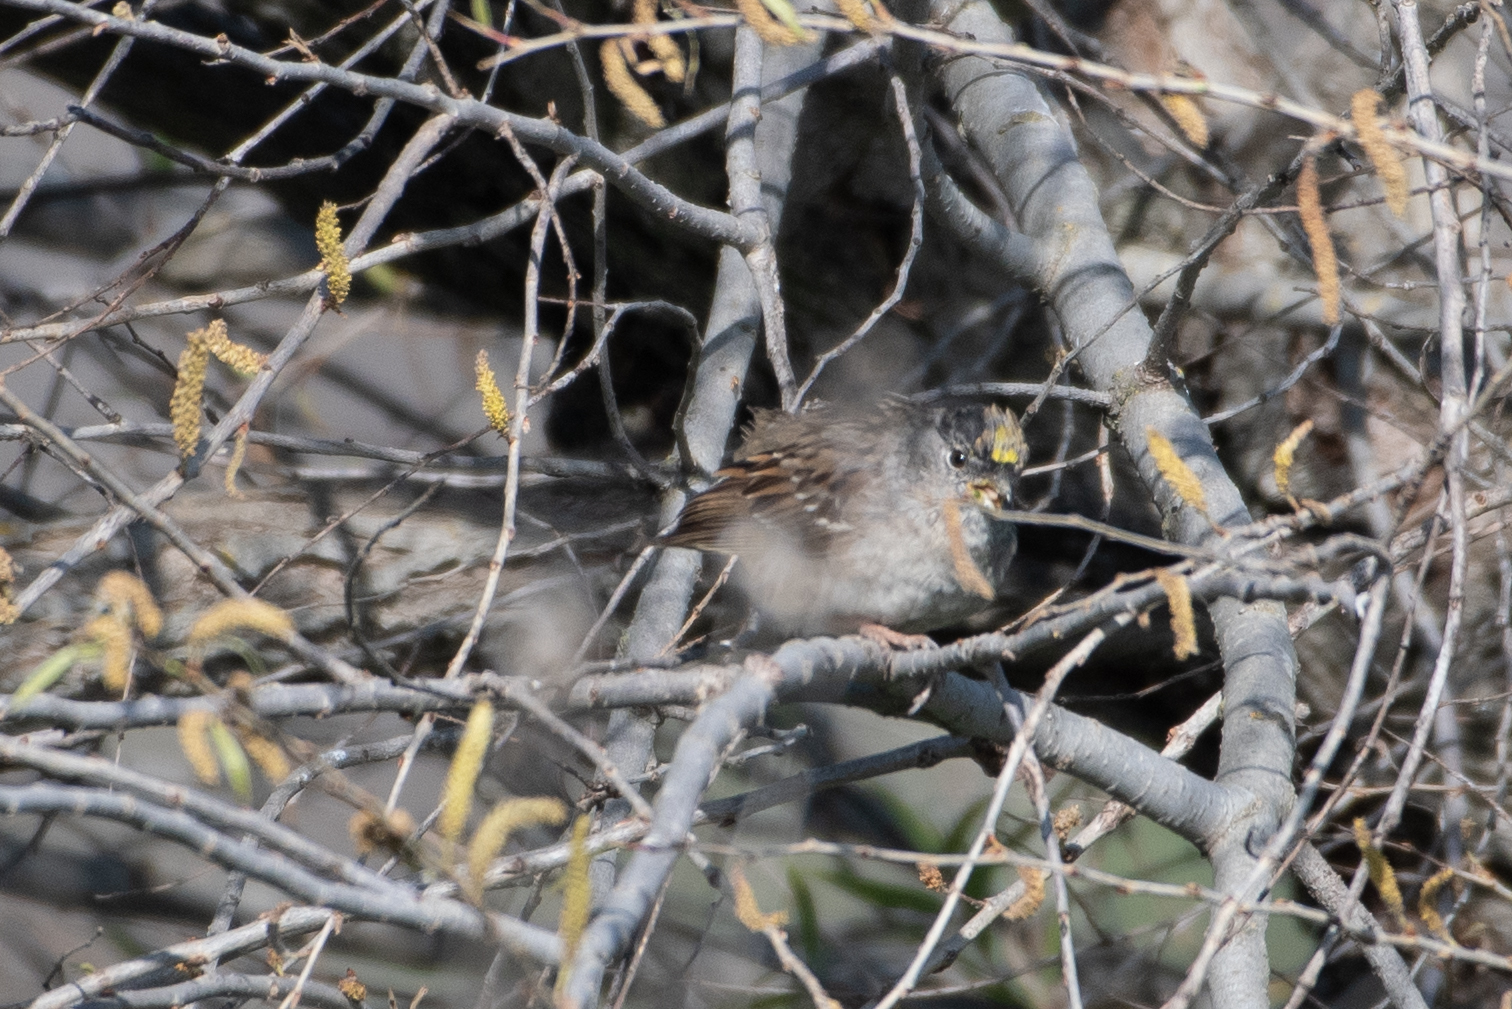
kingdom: Animalia
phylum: Chordata
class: Aves
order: Passeriformes
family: Passerellidae
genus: Zonotrichia
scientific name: Zonotrichia atricapilla
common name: Golden-crowned sparrow
